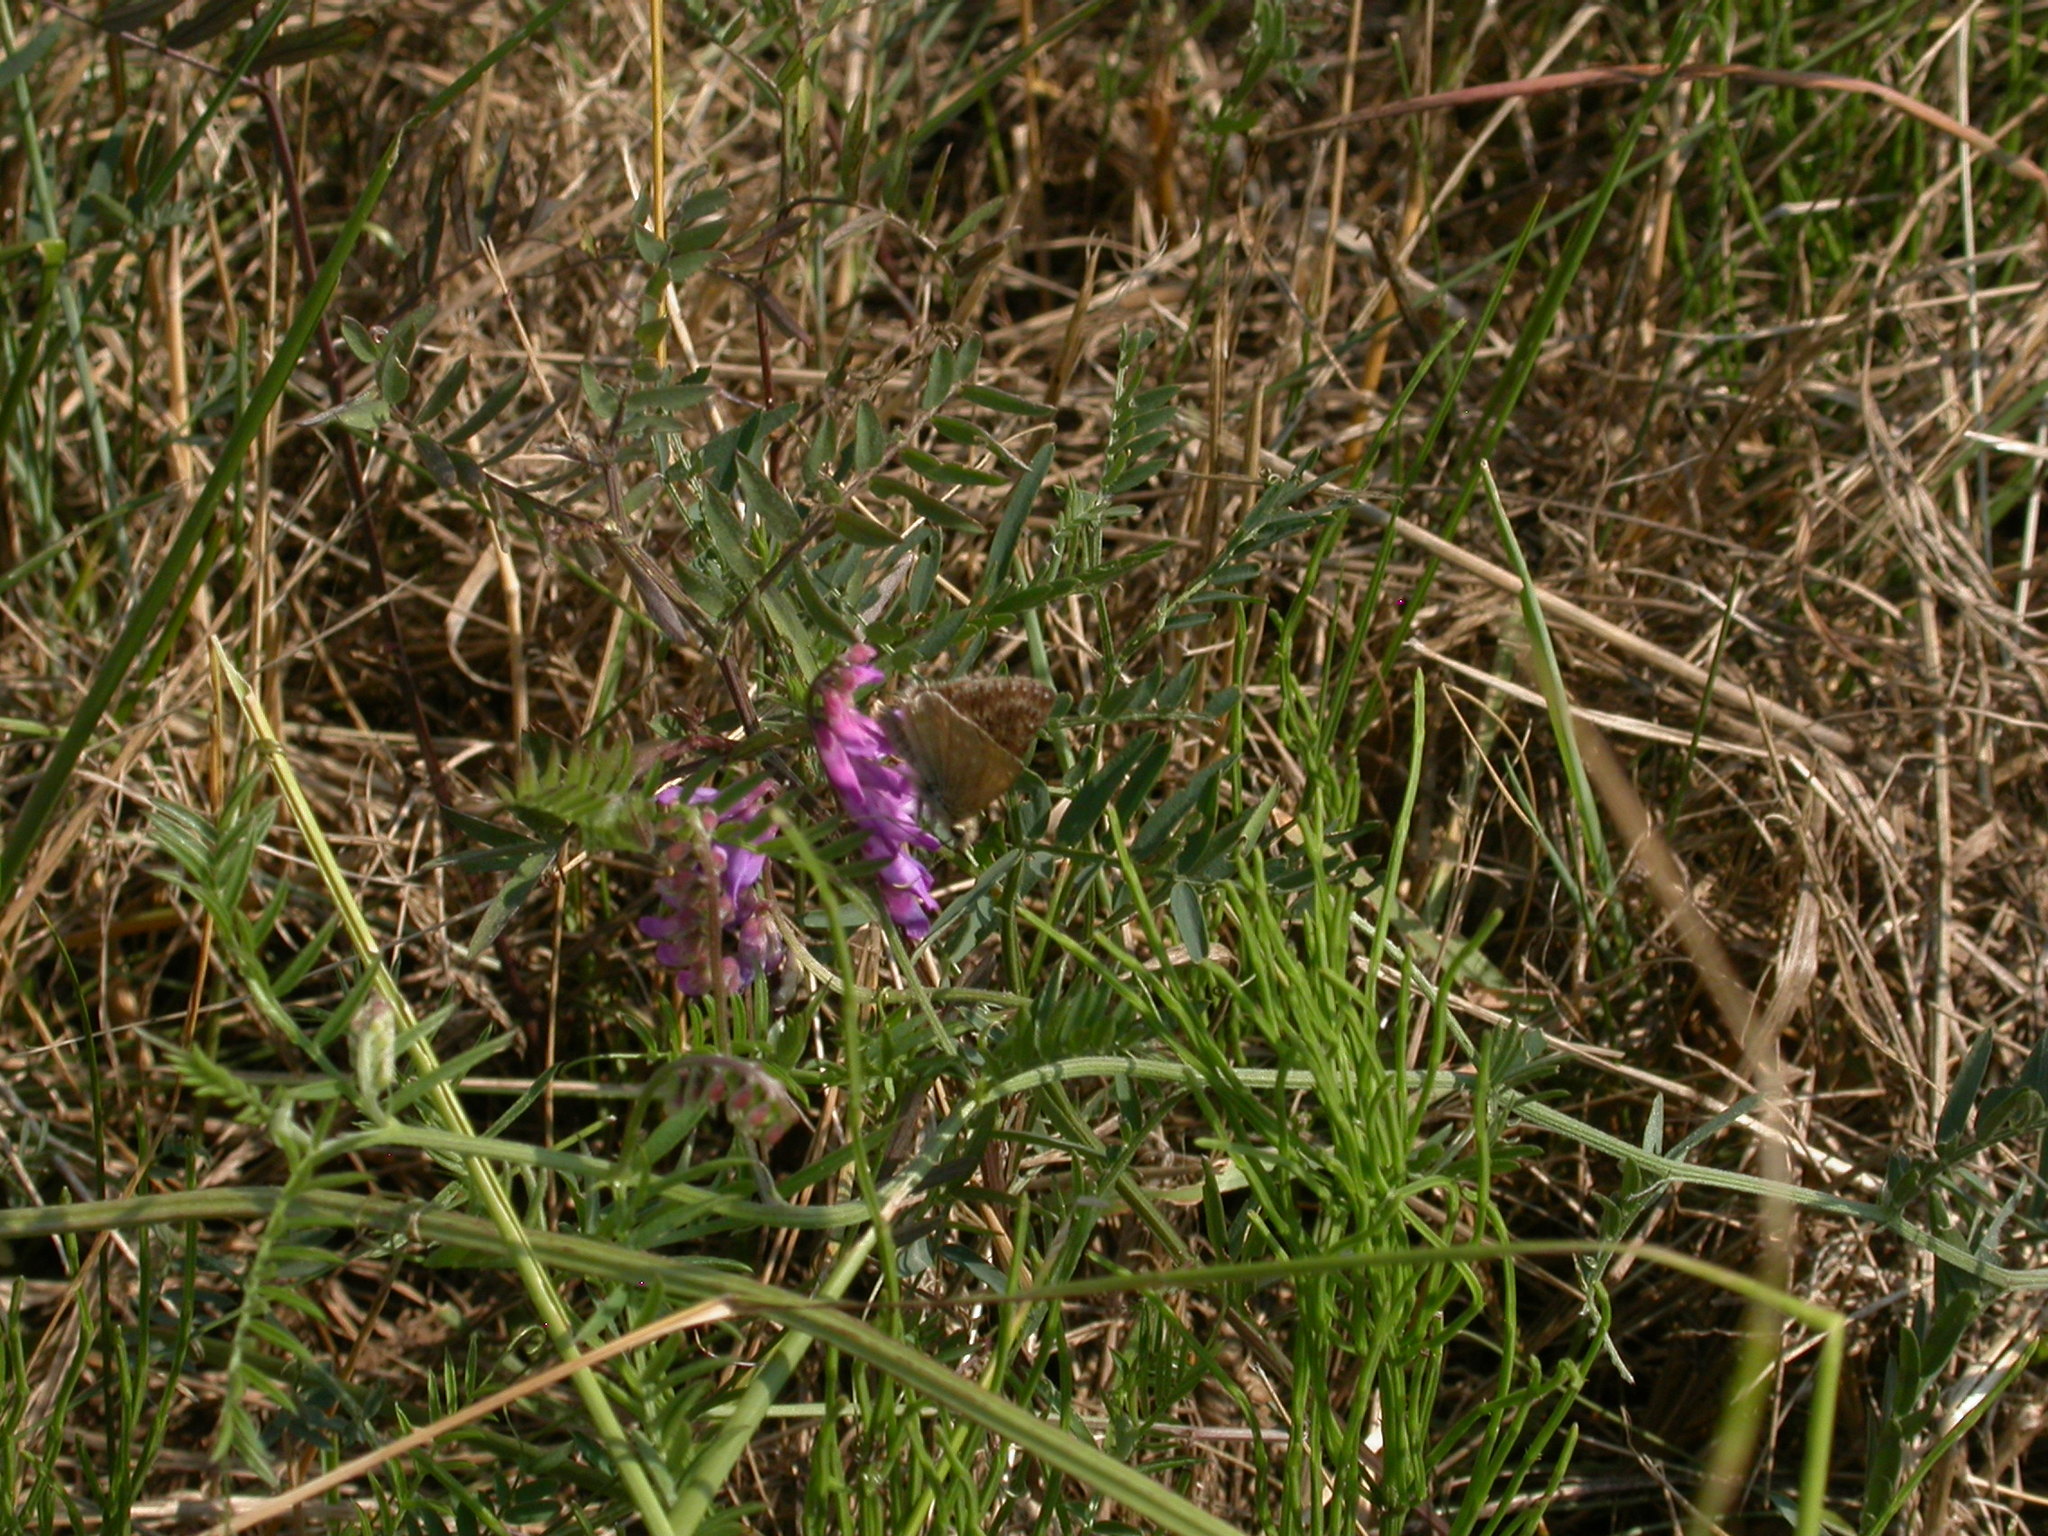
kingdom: Animalia
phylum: Arthropoda
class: Insecta
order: Lepidoptera
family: Hesperiidae
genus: Erynnis
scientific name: Erynnis tages
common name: Dingy skipper
